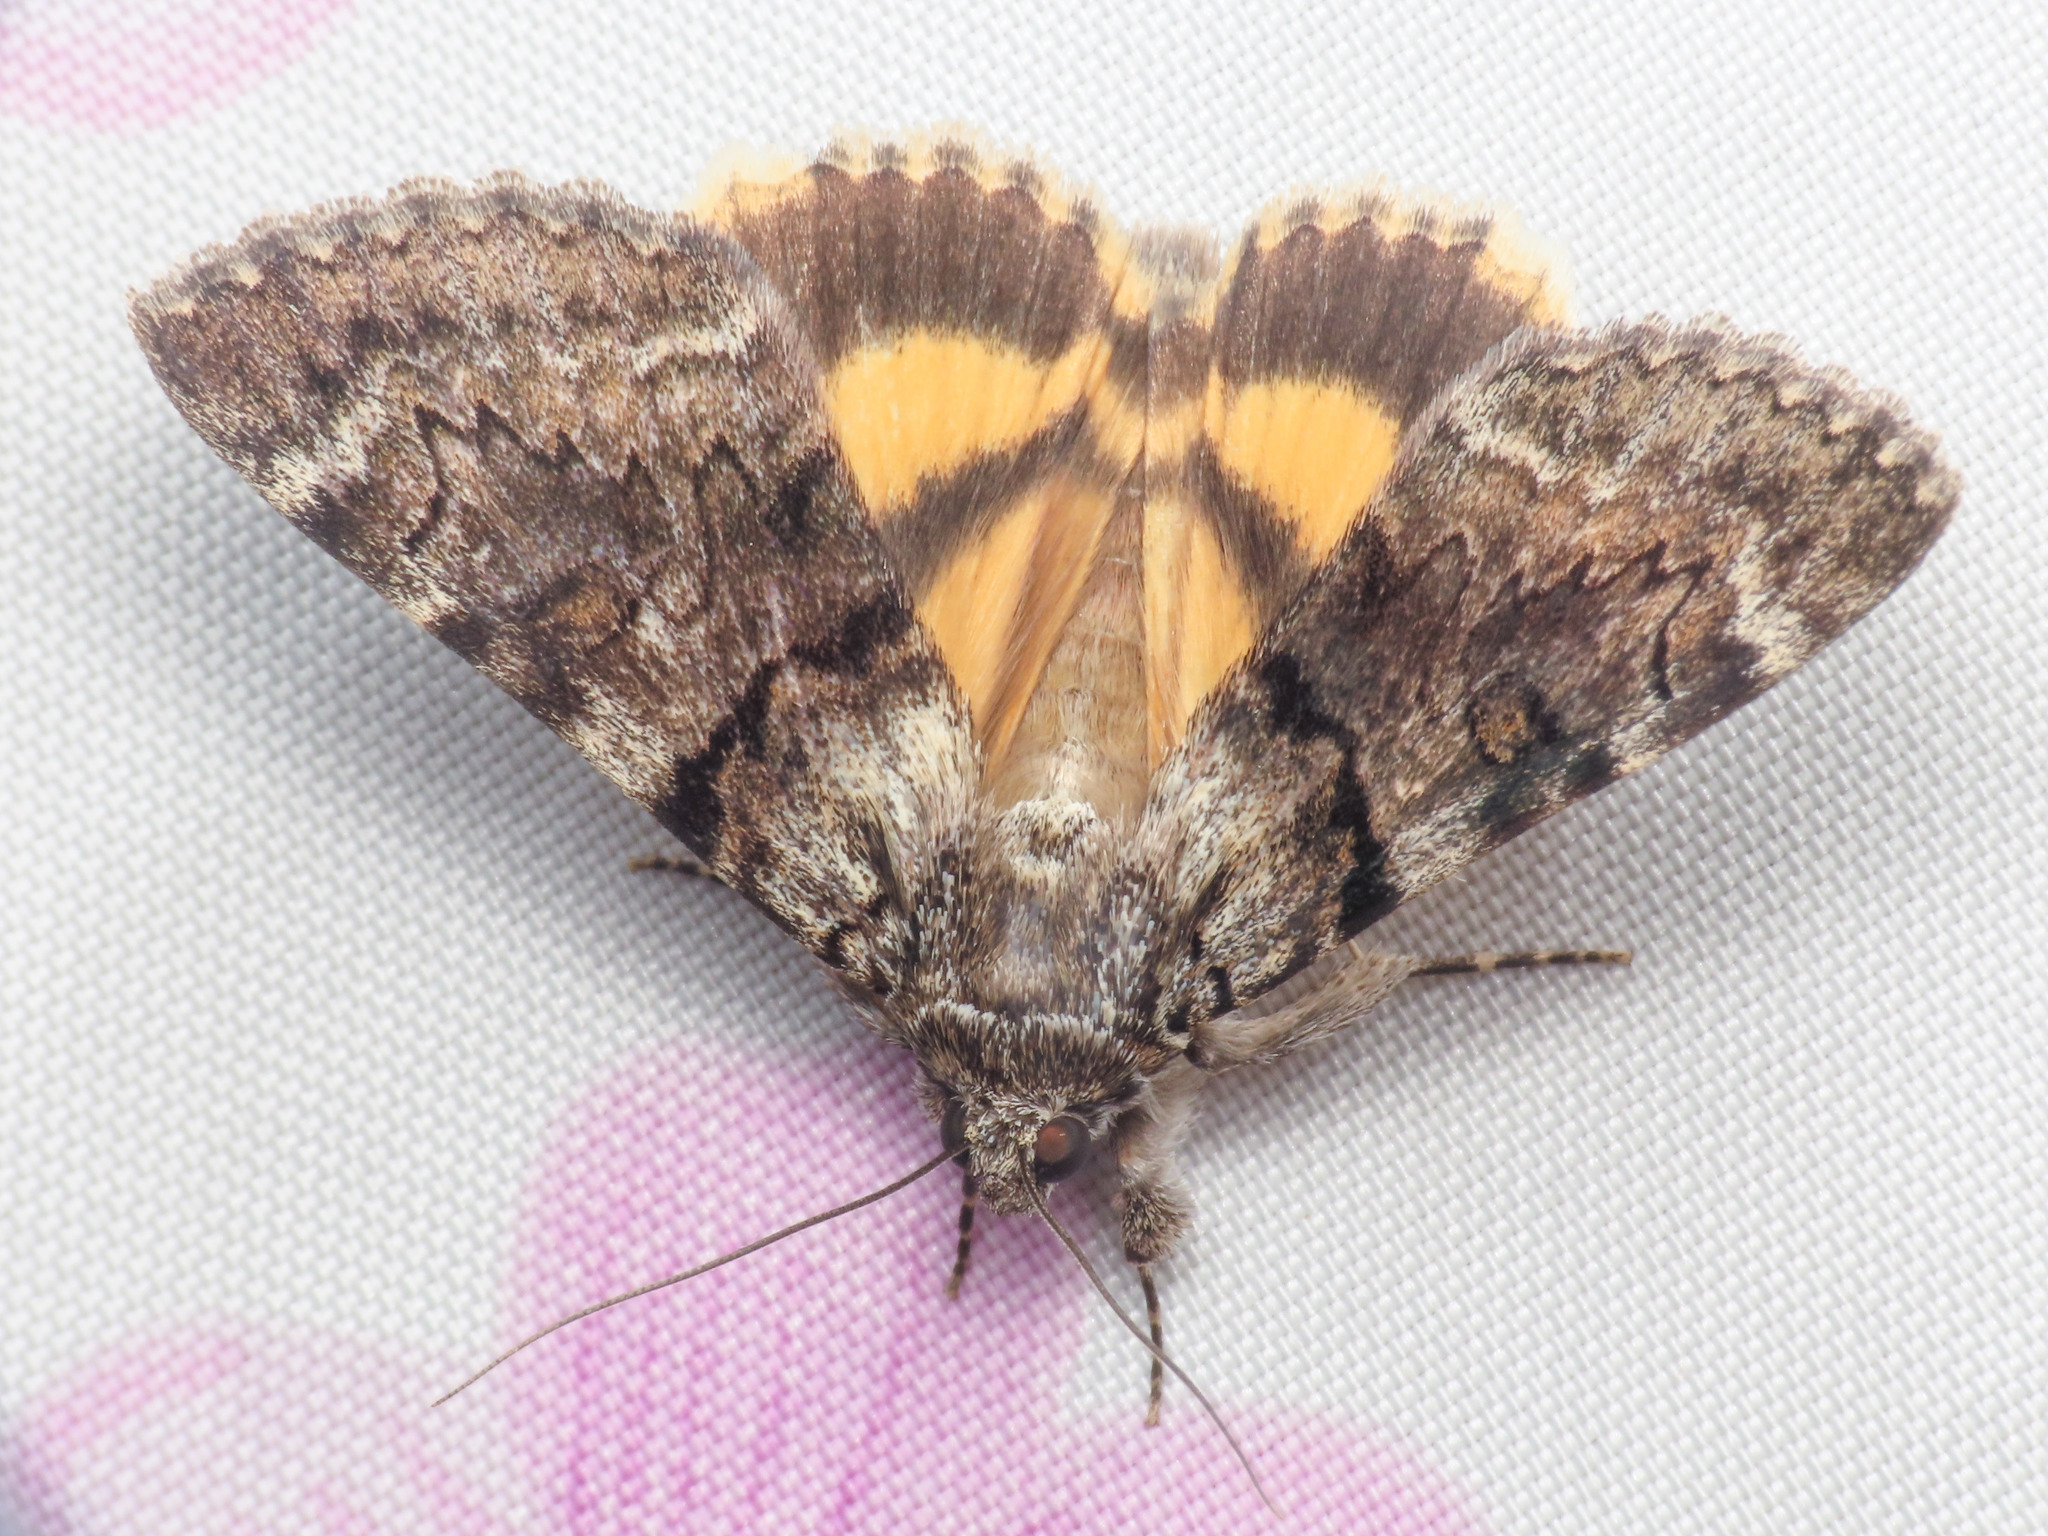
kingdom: Animalia
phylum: Arthropoda
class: Insecta
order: Lepidoptera
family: Erebidae
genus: Catocala
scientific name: Catocala nymphagoga
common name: Oak yellow underwing
